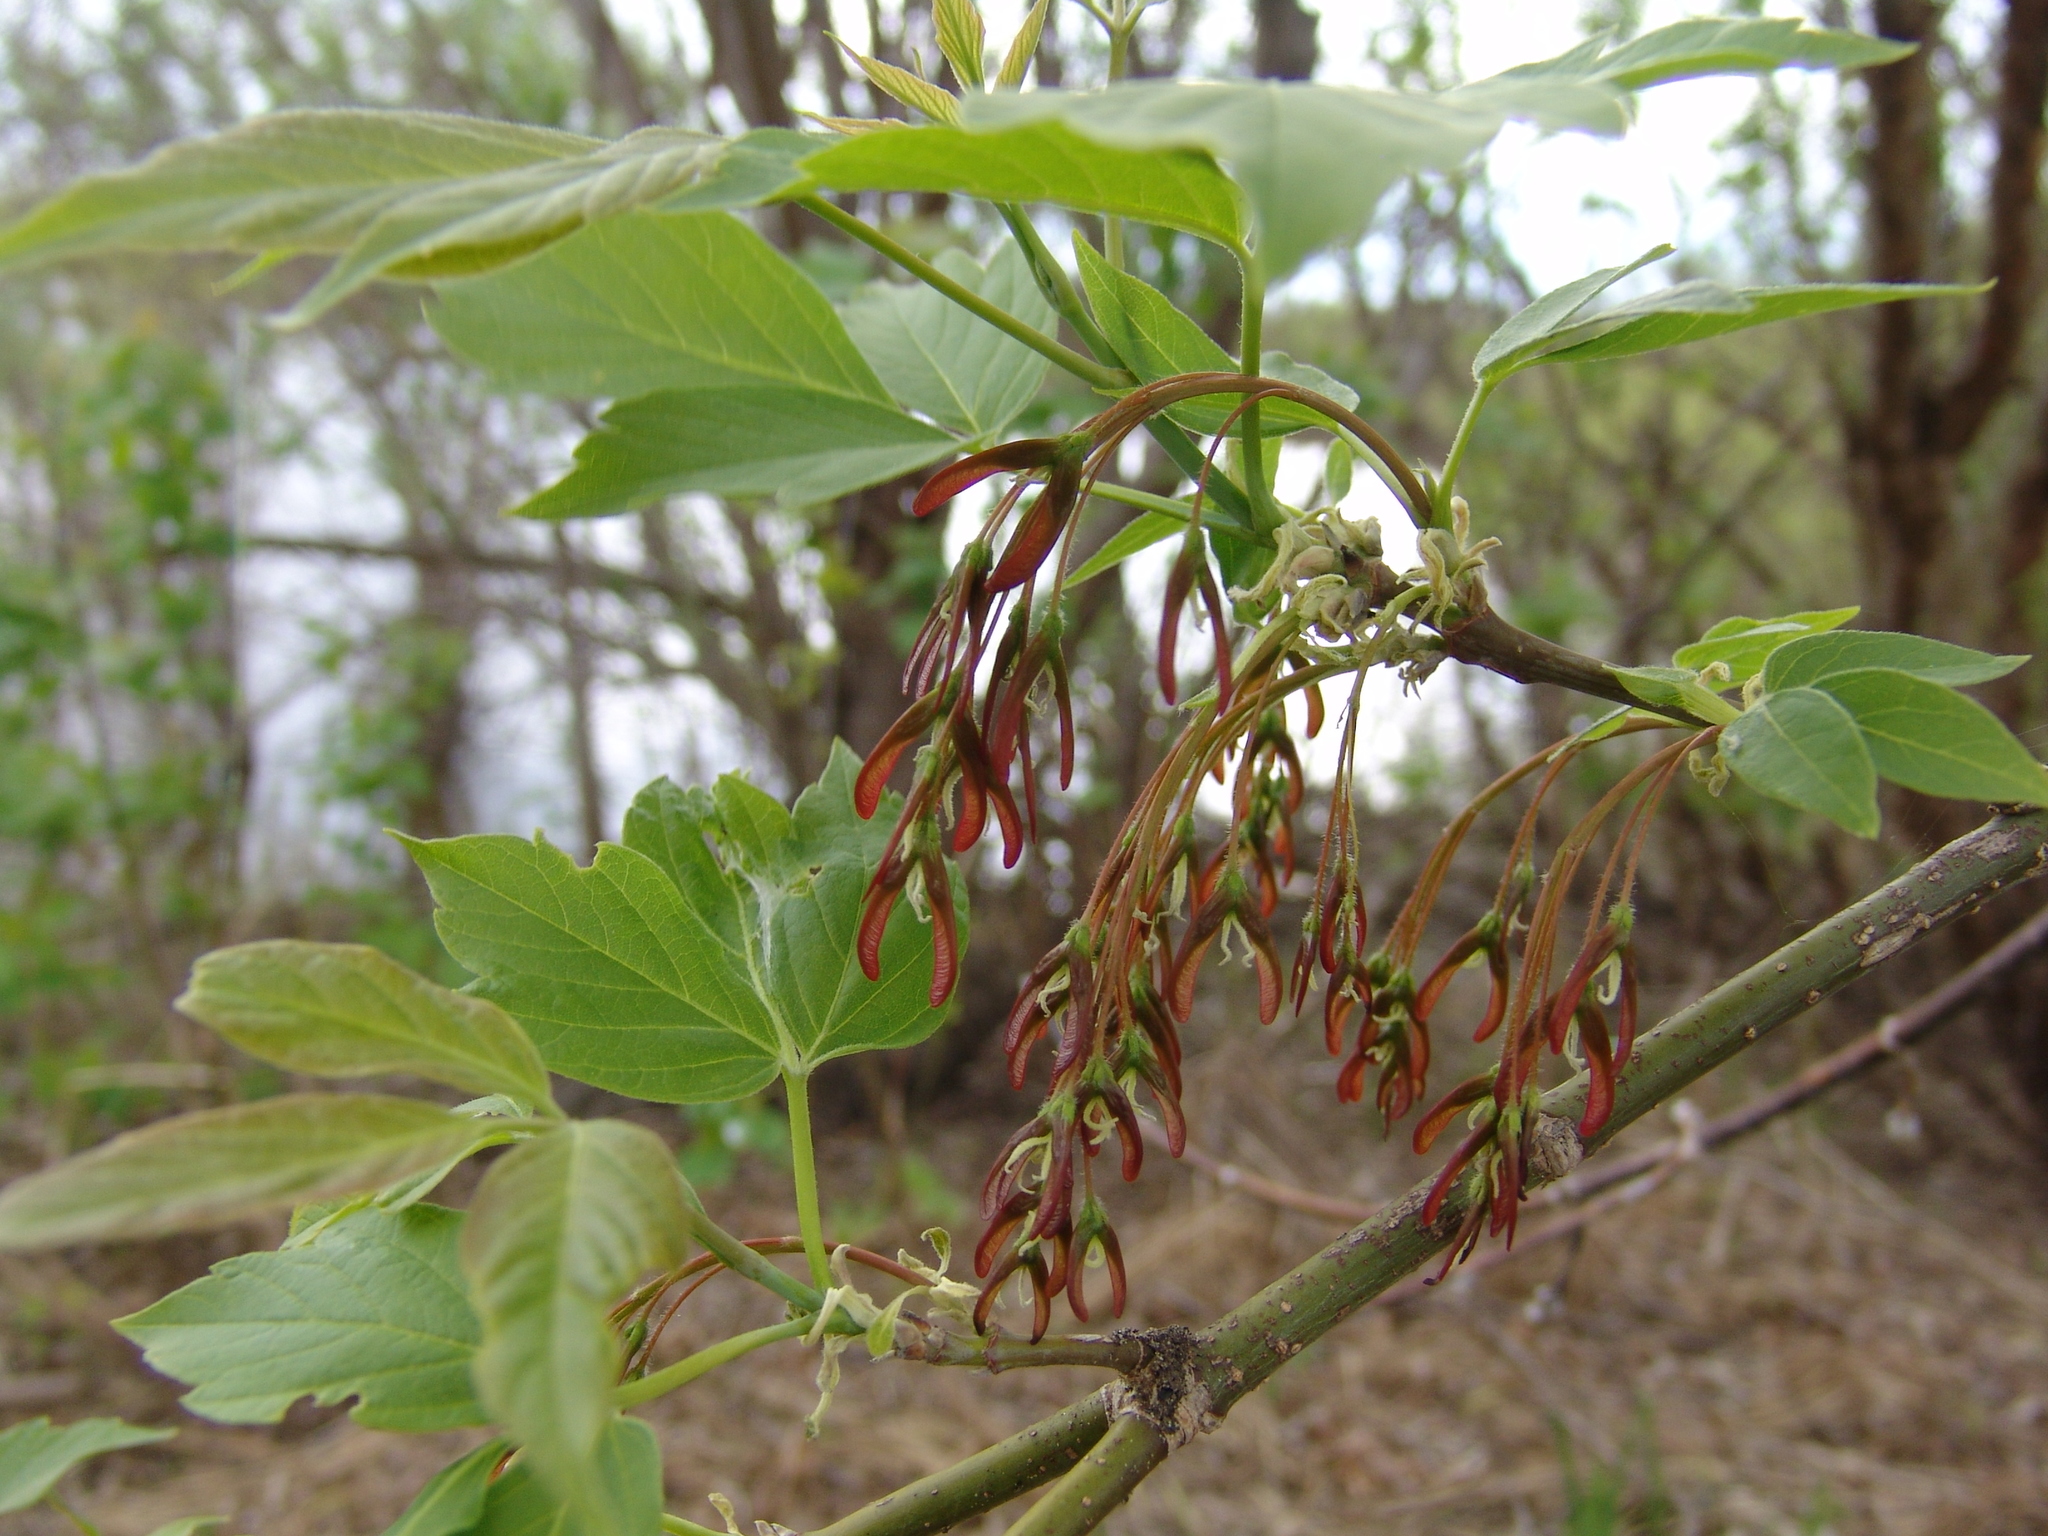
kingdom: Plantae
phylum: Tracheophyta
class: Magnoliopsida
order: Sapindales
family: Sapindaceae
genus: Acer
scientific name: Acer negundo
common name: Ashleaf maple
